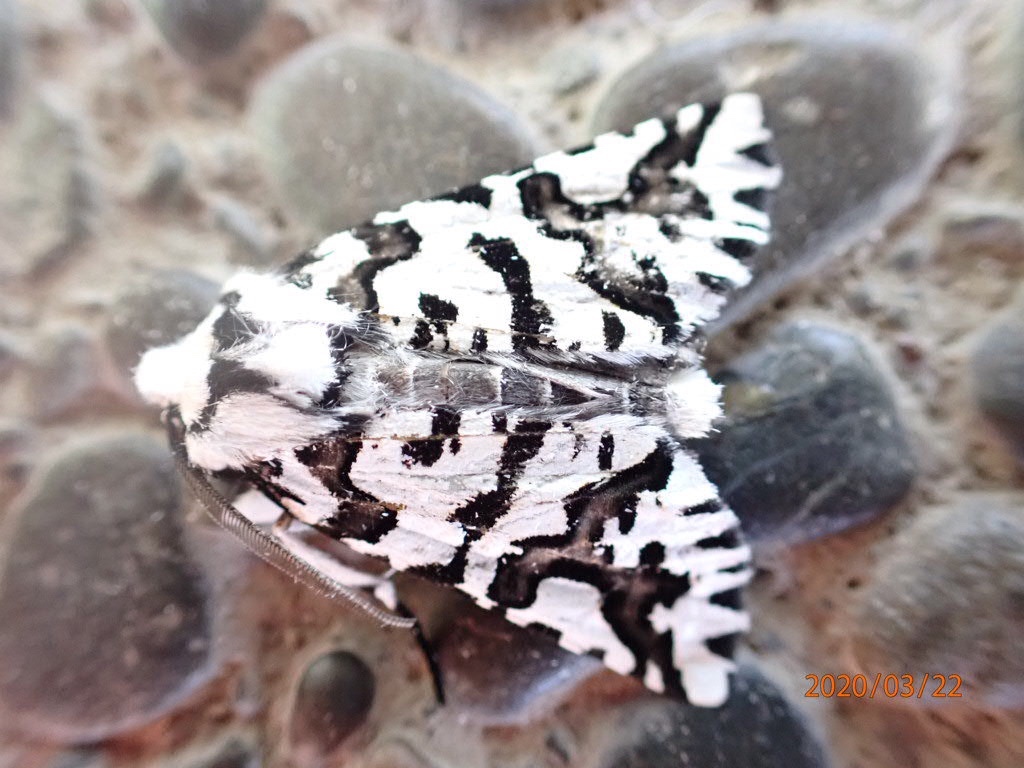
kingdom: Animalia
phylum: Arthropoda
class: Insecta
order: Lepidoptera
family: Geometridae
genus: Declana
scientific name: Declana
